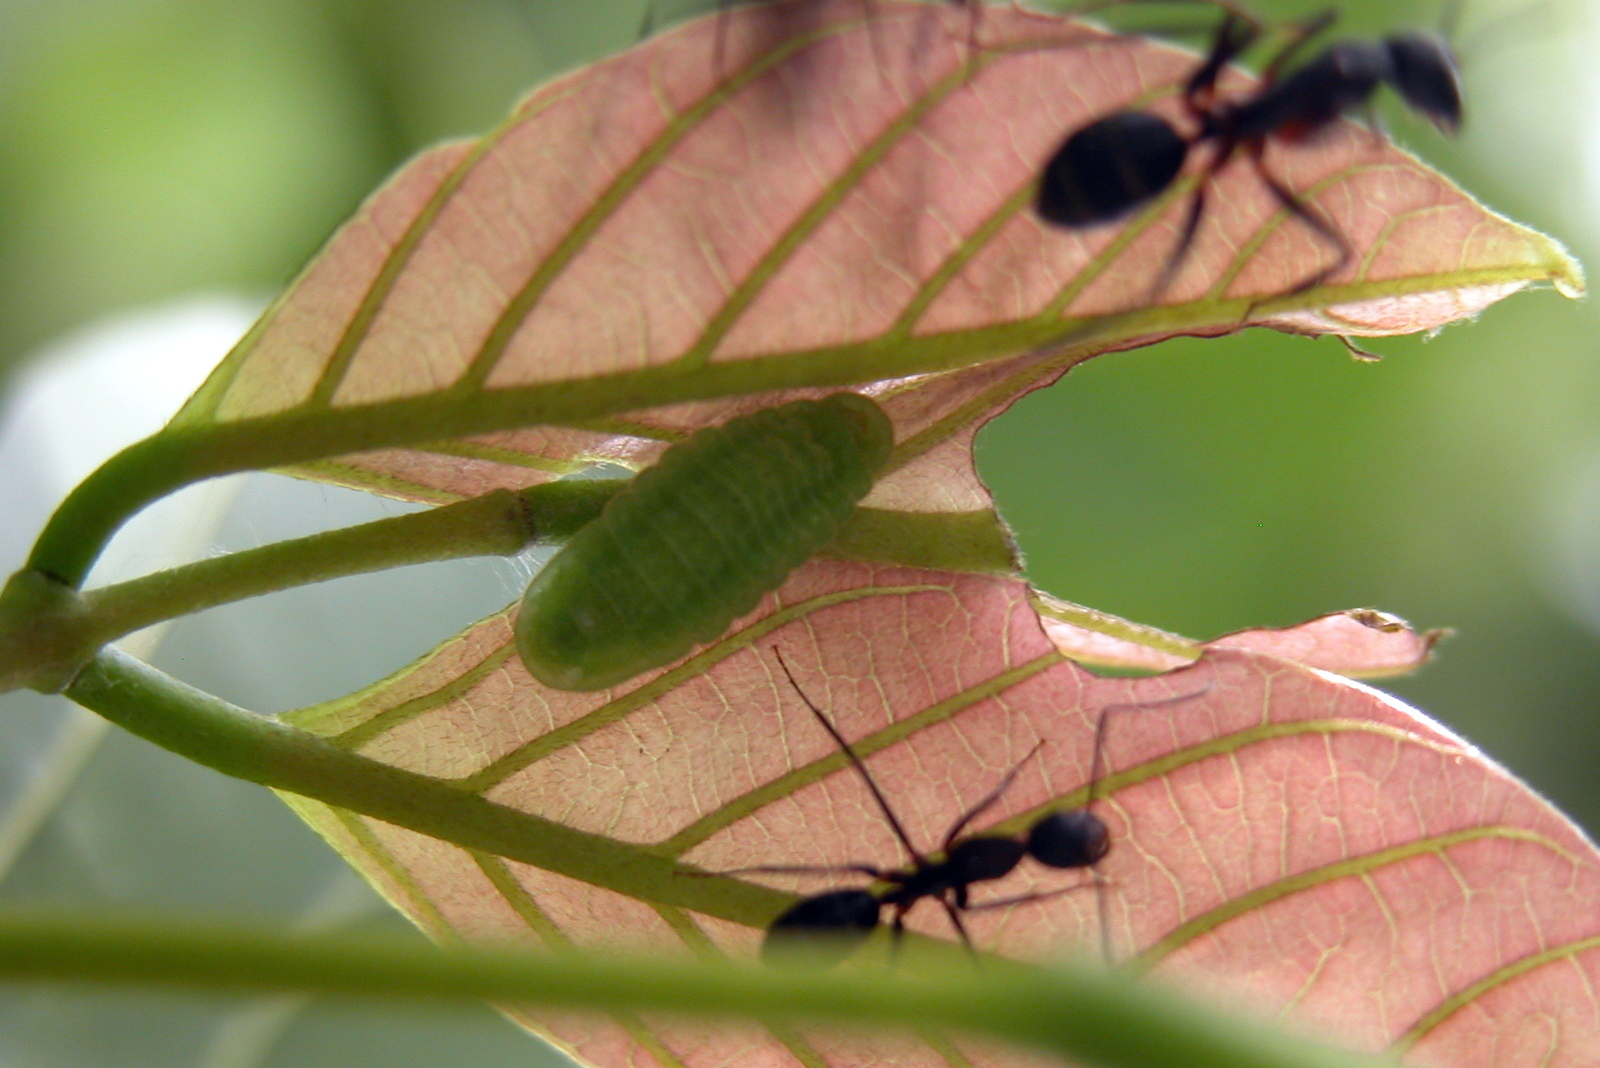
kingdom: Animalia
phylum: Arthropoda
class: Insecta
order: Lepidoptera
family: Lycaenidae
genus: Jamides
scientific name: Jamides celeno
